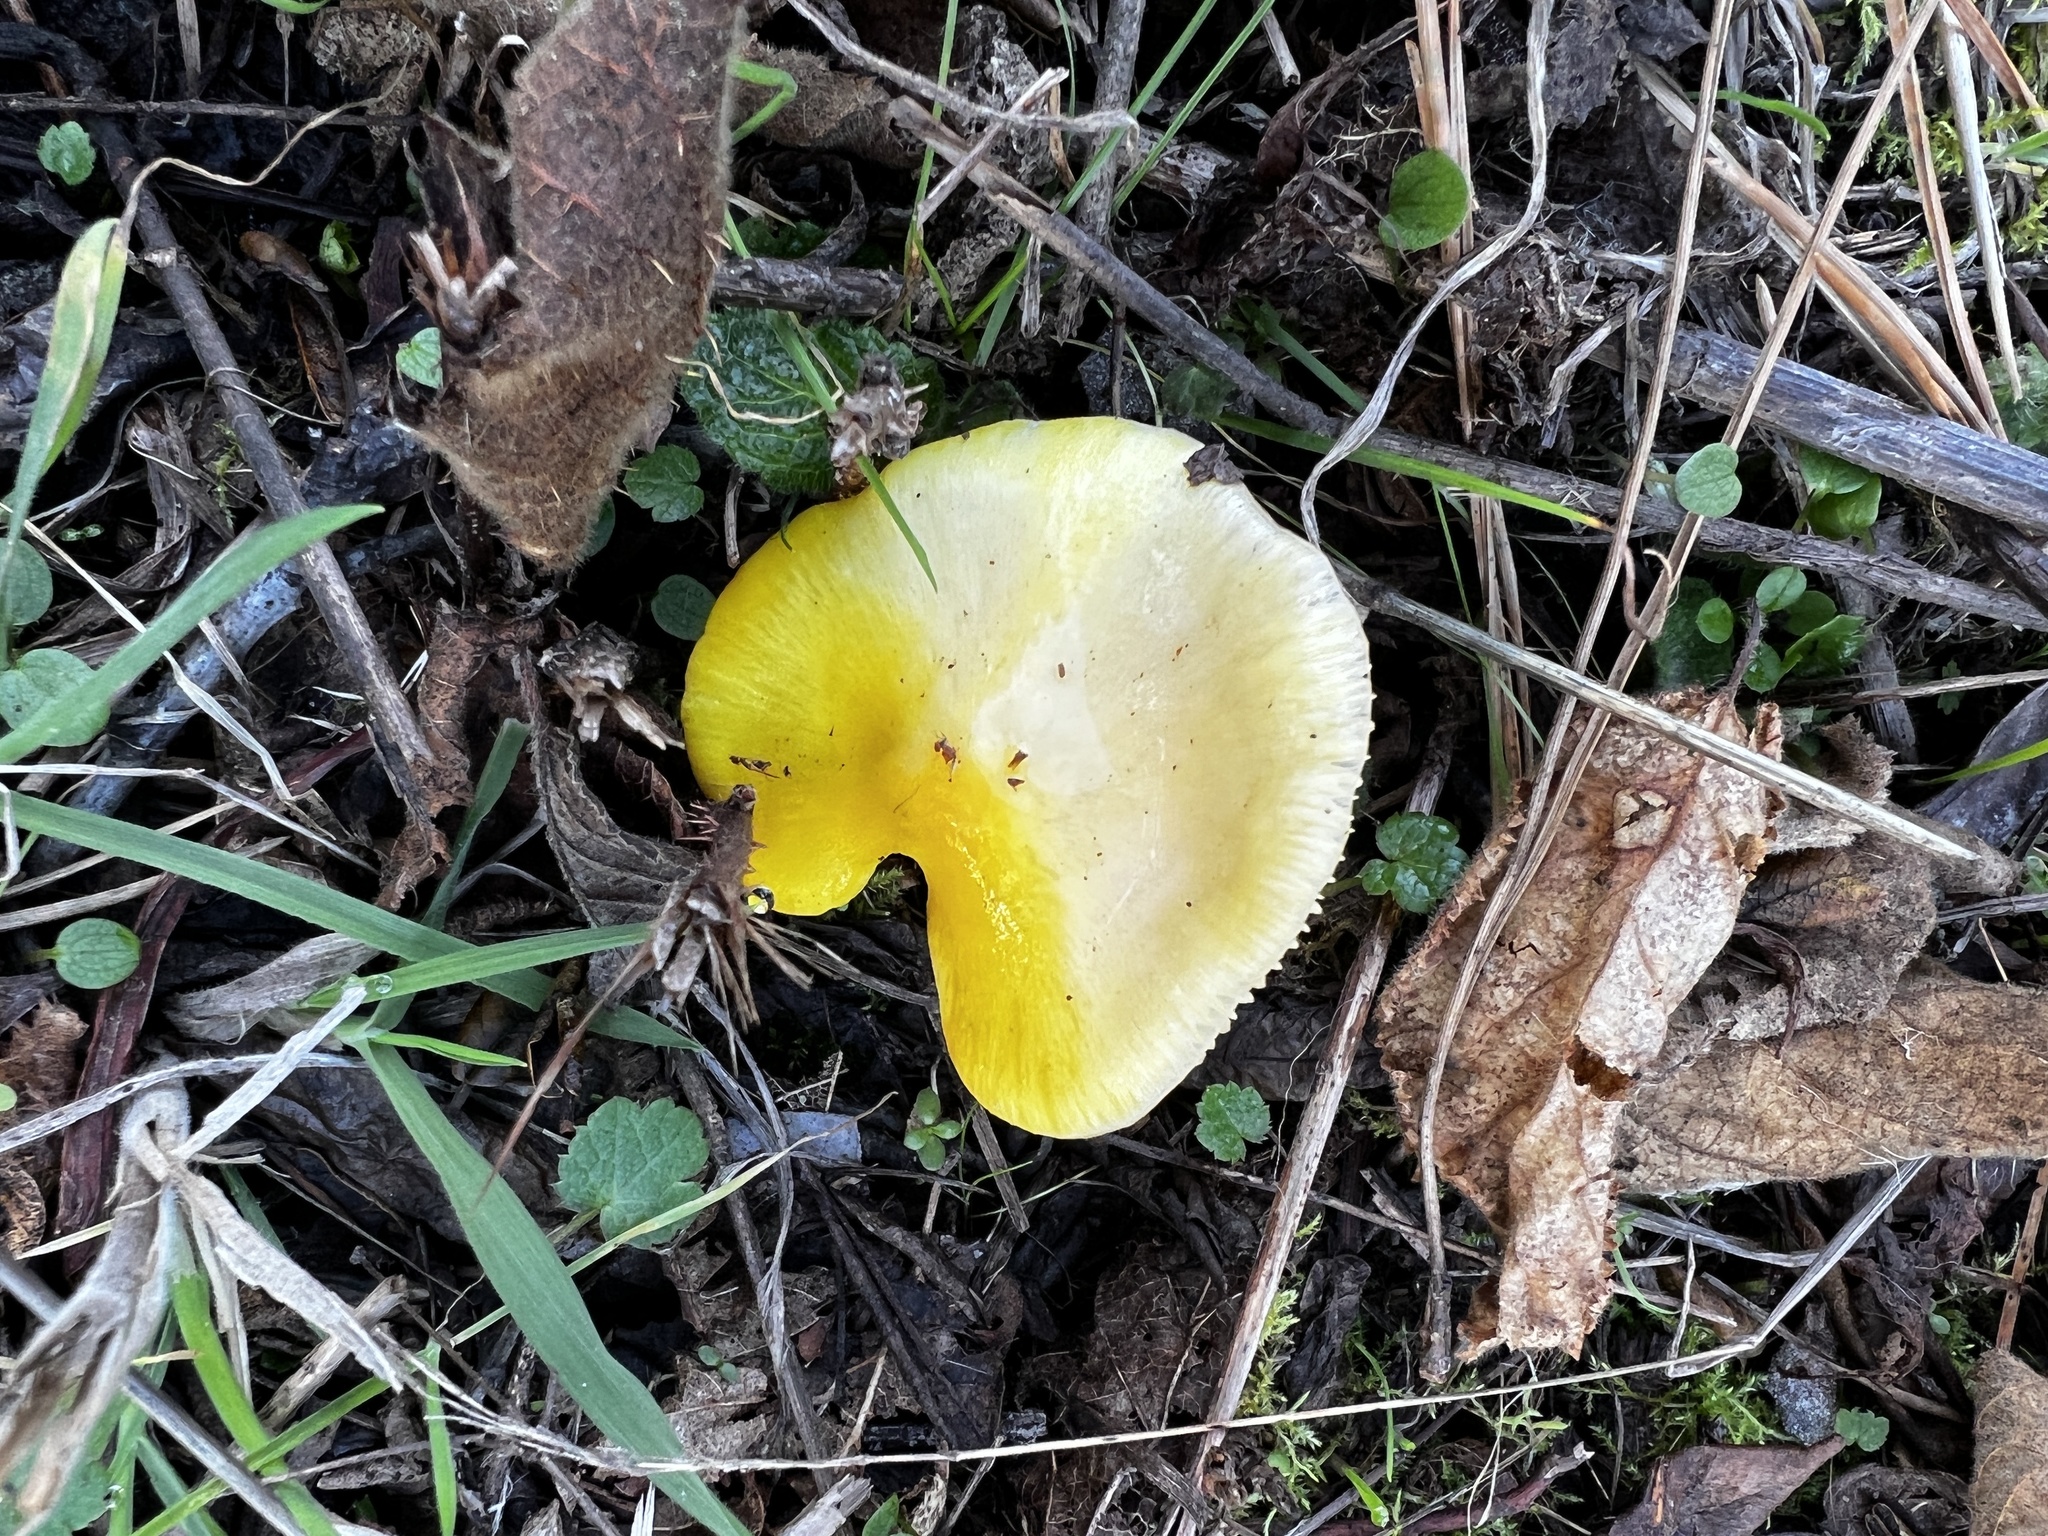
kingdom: Fungi
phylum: Basidiomycota
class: Agaricomycetes
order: Agaricales
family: Hygrophoraceae
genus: Hygrocybe
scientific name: Hygrocybe flavescens
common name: Golden waxy cap
